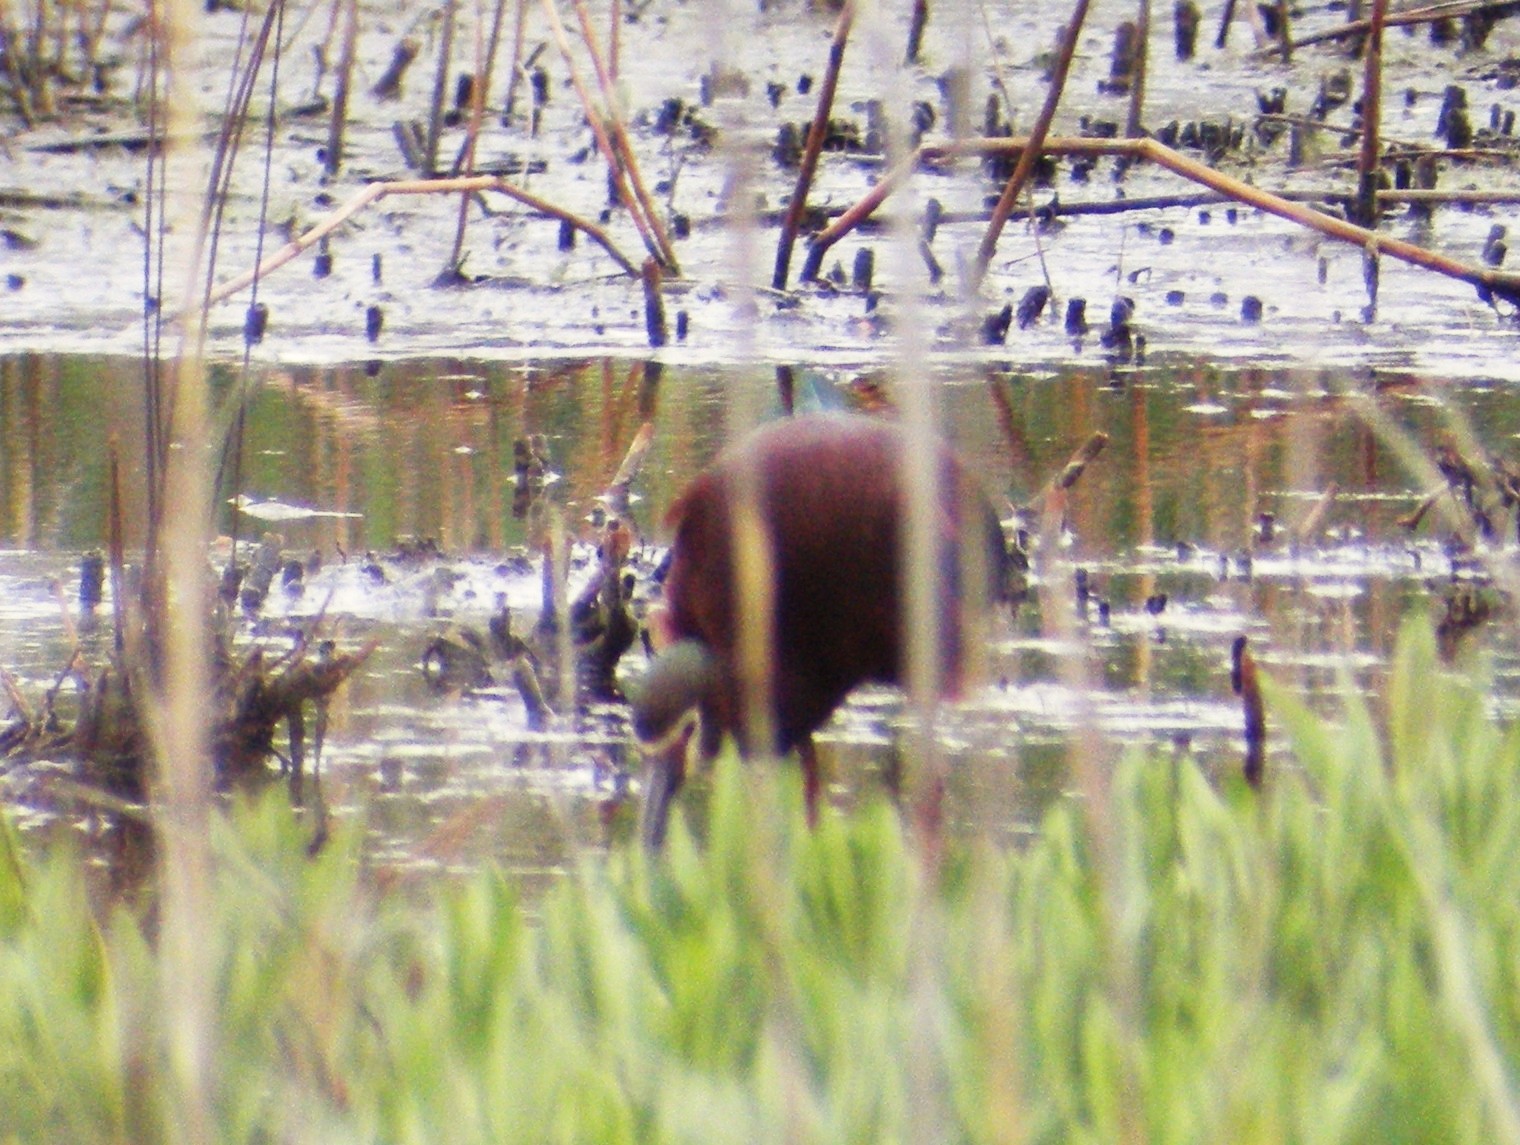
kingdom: Animalia
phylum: Chordata
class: Aves
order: Pelecaniformes
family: Threskiornithidae
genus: Plegadis
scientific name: Plegadis chihi
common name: White-faced ibis
